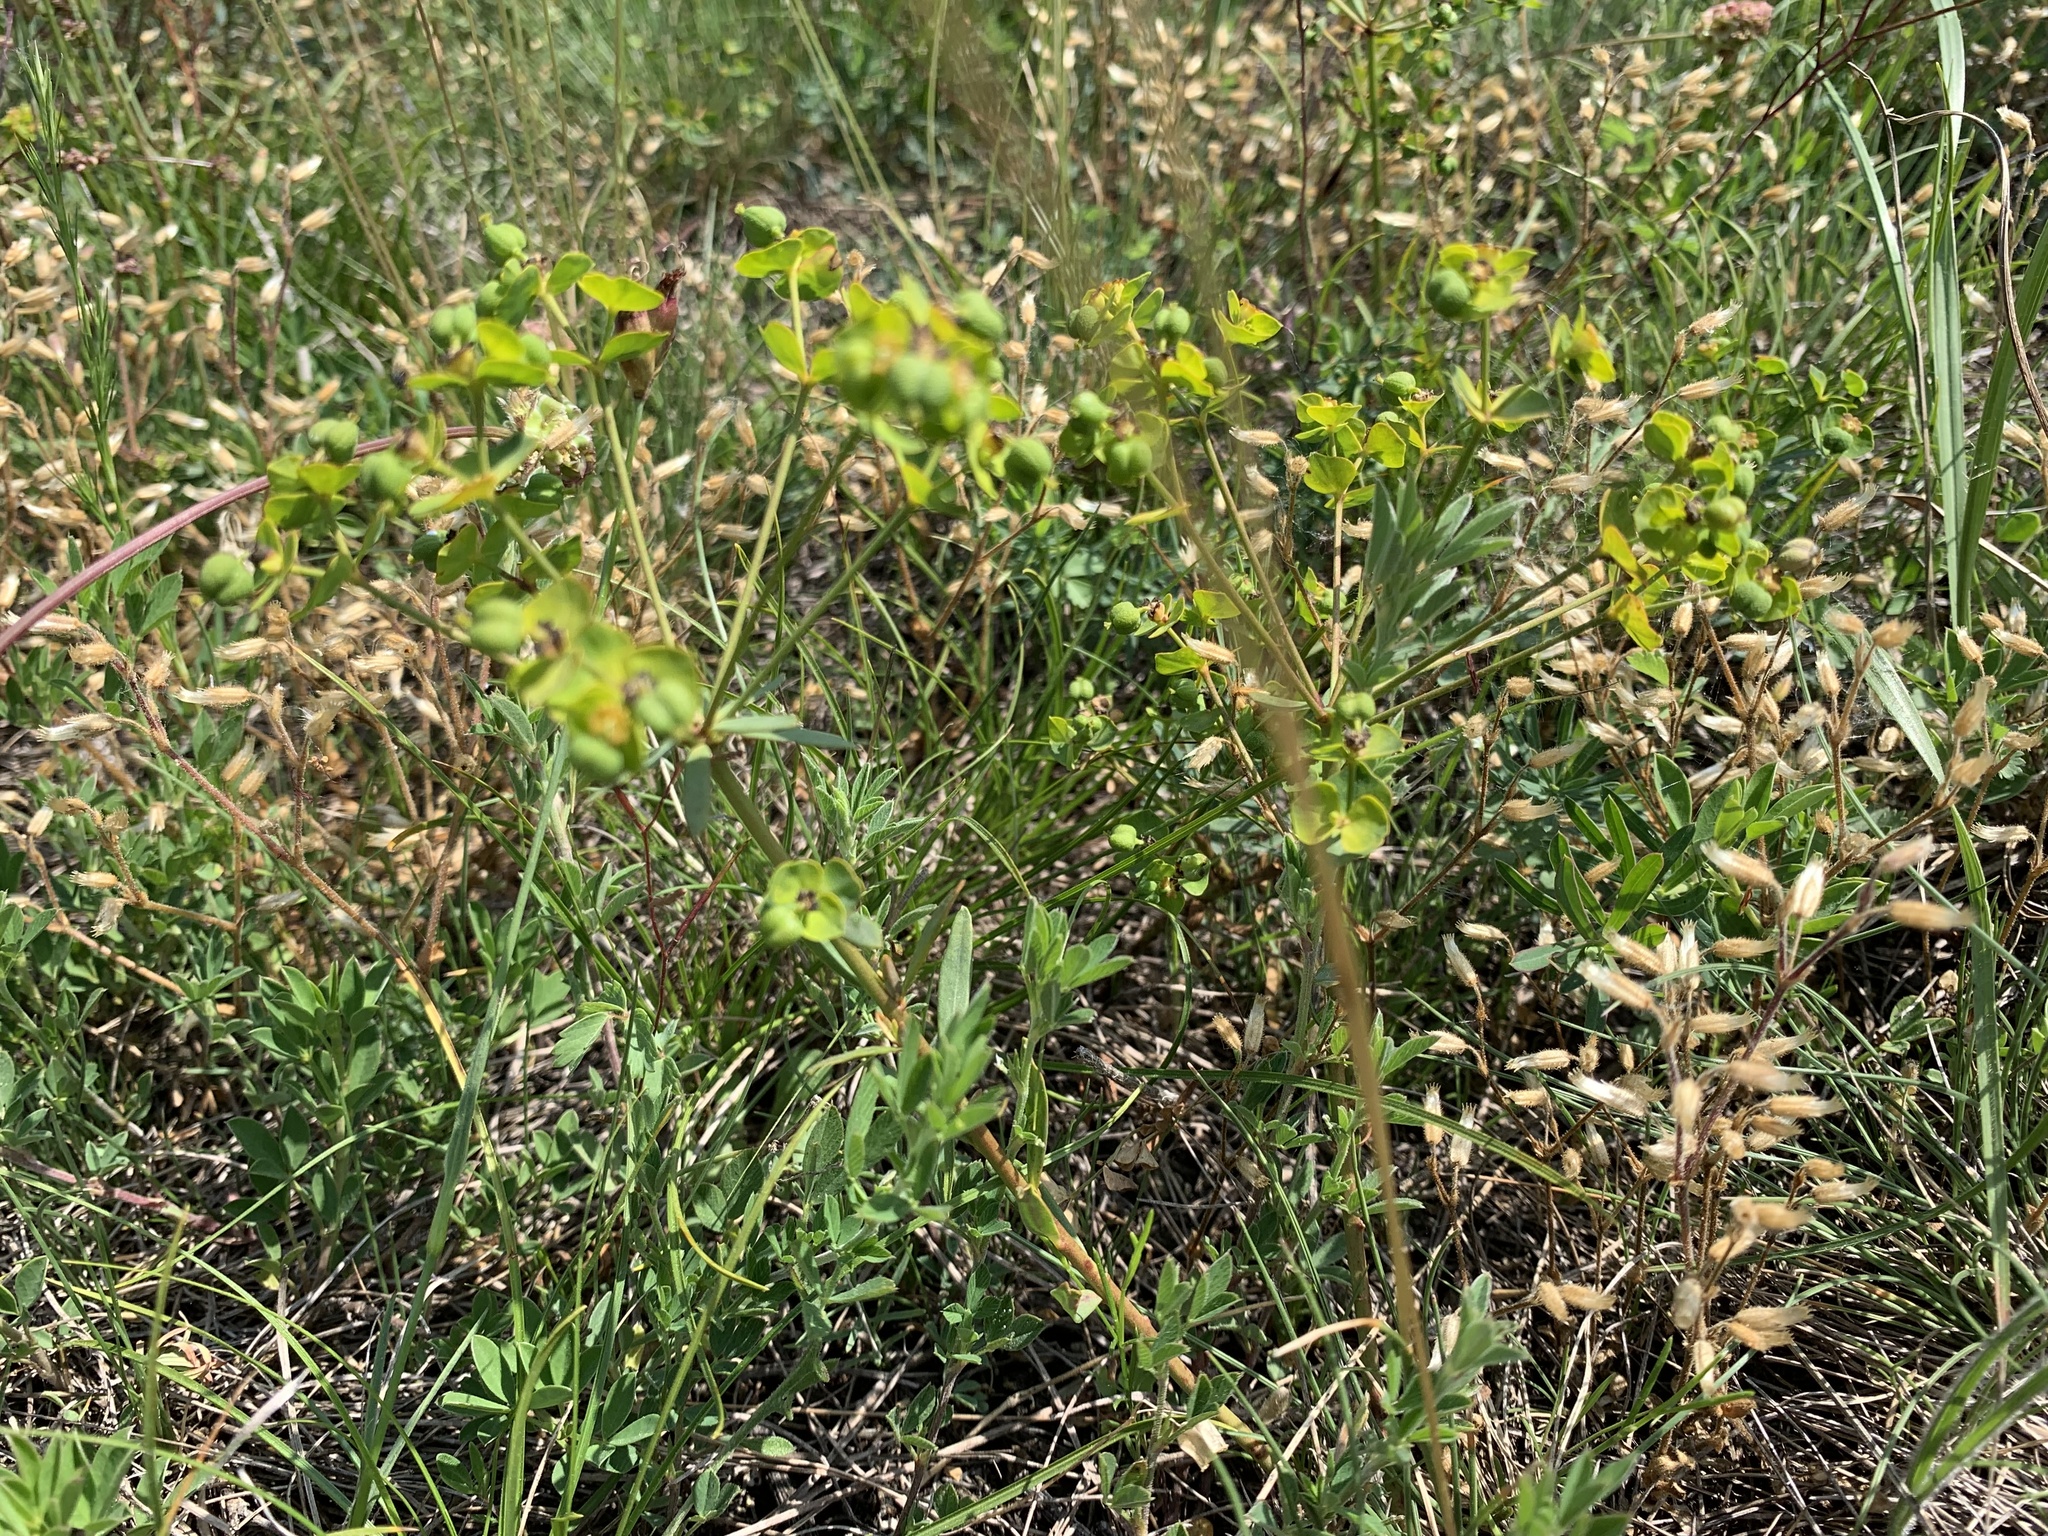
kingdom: Plantae
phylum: Tracheophyta
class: Magnoliopsida
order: Malpighiales
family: Euphorbiaceae
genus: Euphorbia
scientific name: Euphorbia esula
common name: Leafy spurge
